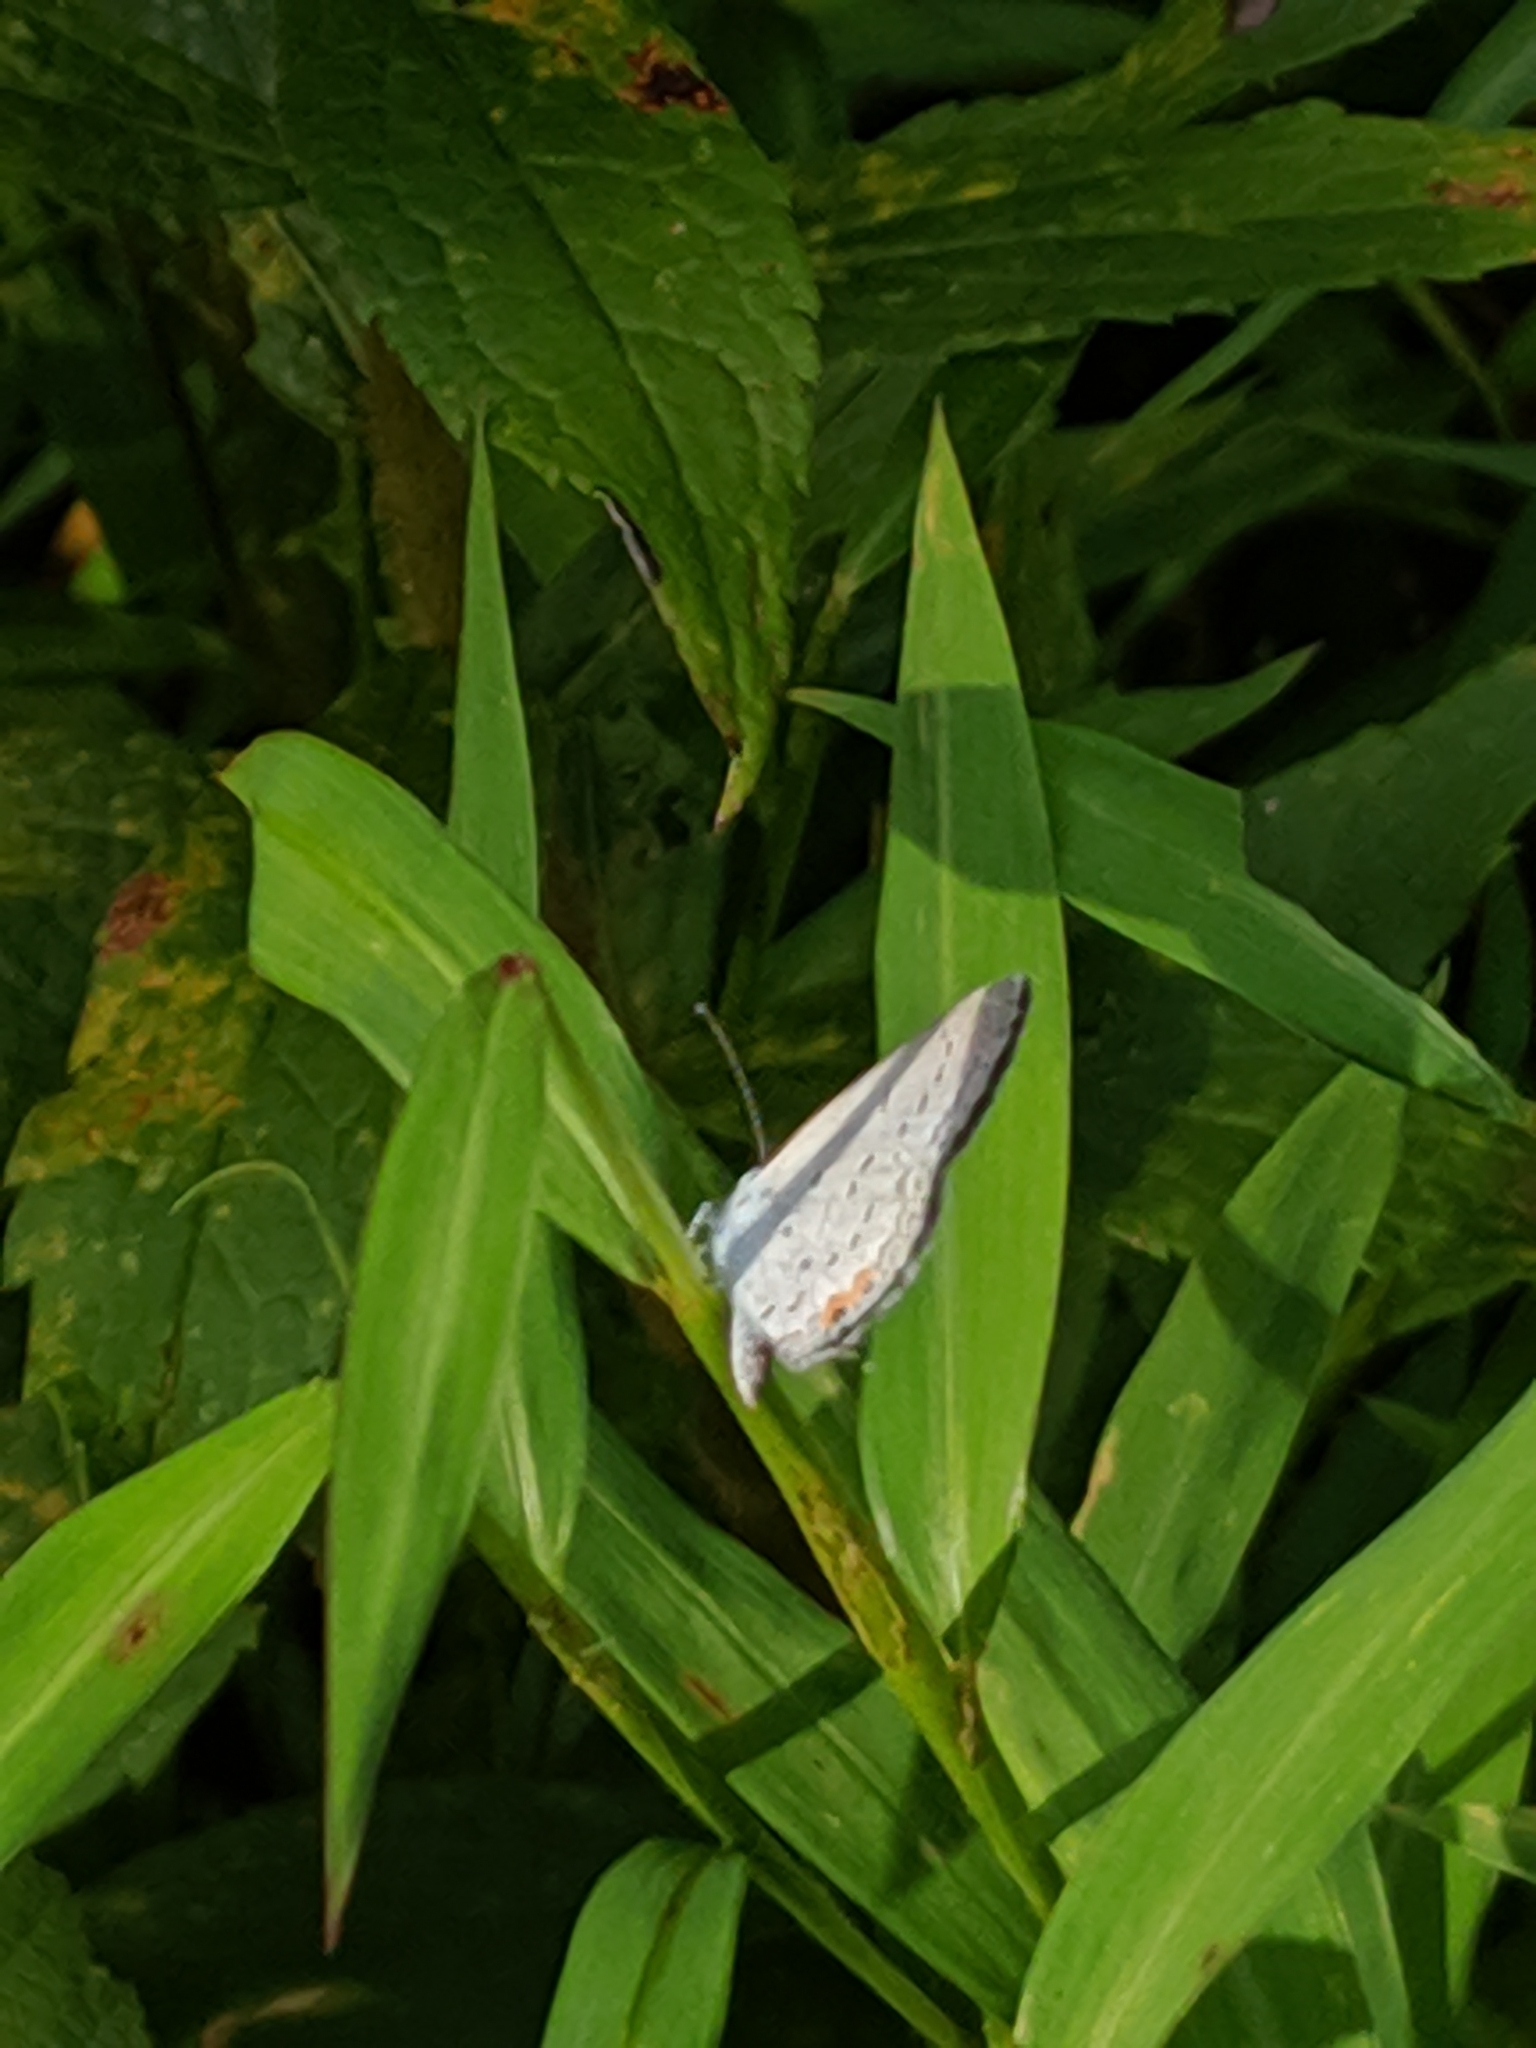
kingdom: Animalia
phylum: Arthropoda
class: Insecta
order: Lepidoptera
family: Lycaenidae
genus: Elkalyce
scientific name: Elkalyce comyntas
